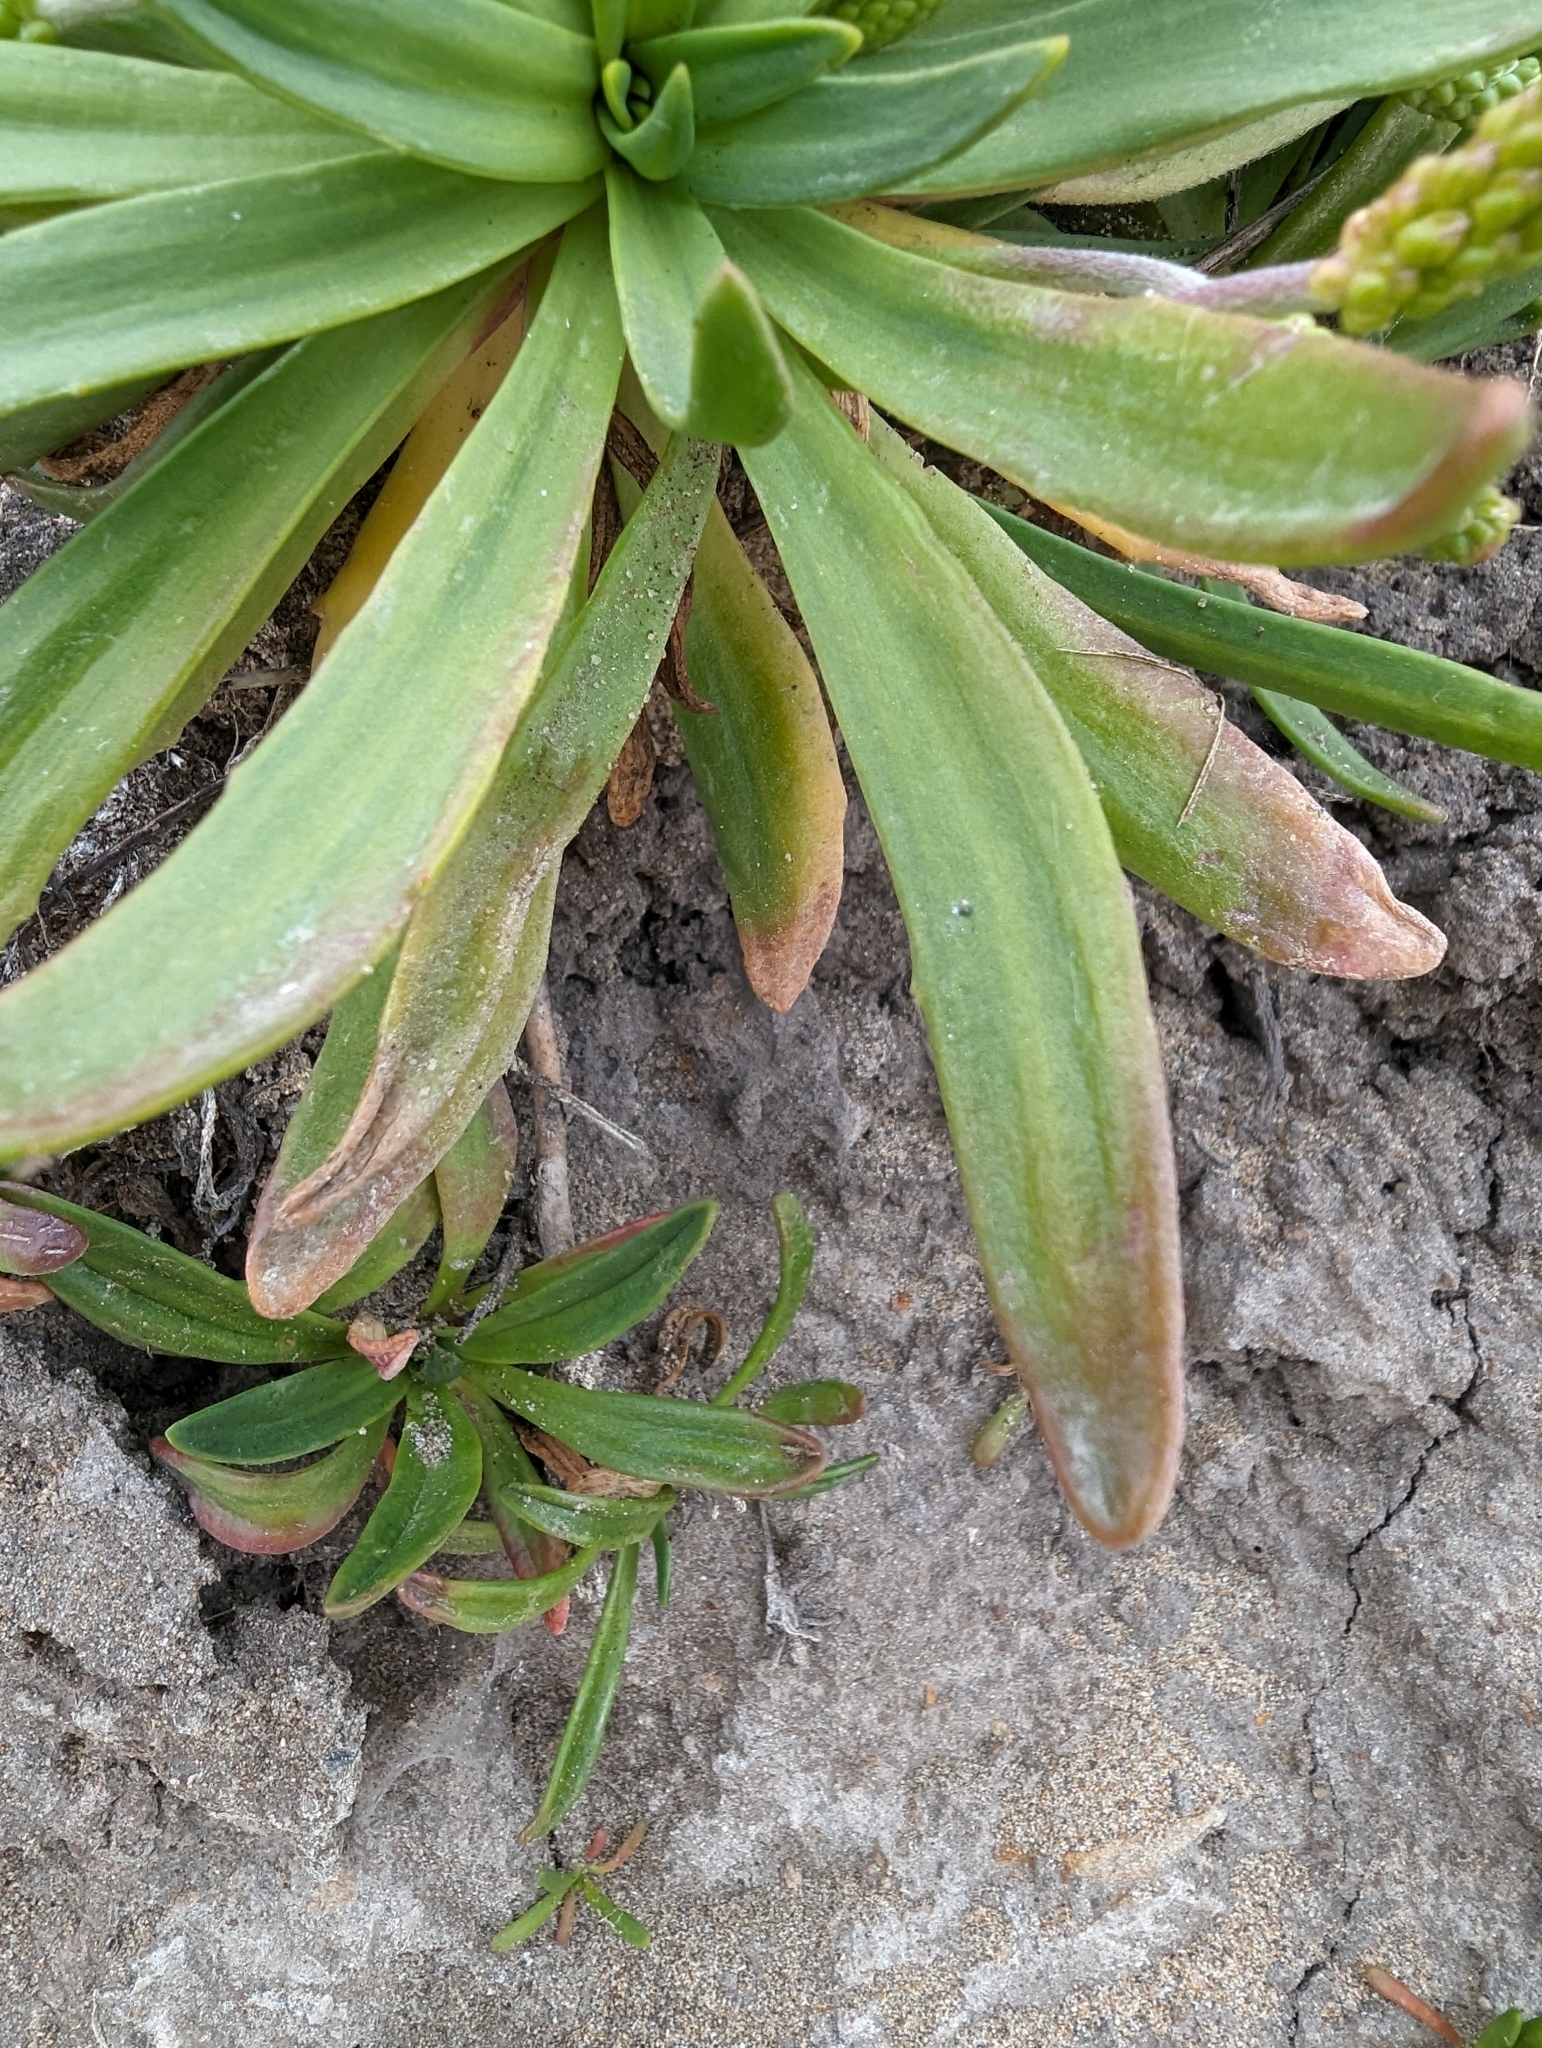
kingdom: Plantae
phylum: Tracheophyta
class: Magnoliopsida
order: Lamiales
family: Plantaginaceae
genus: Plantago
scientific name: Plantago maritima
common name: Sea plantain
